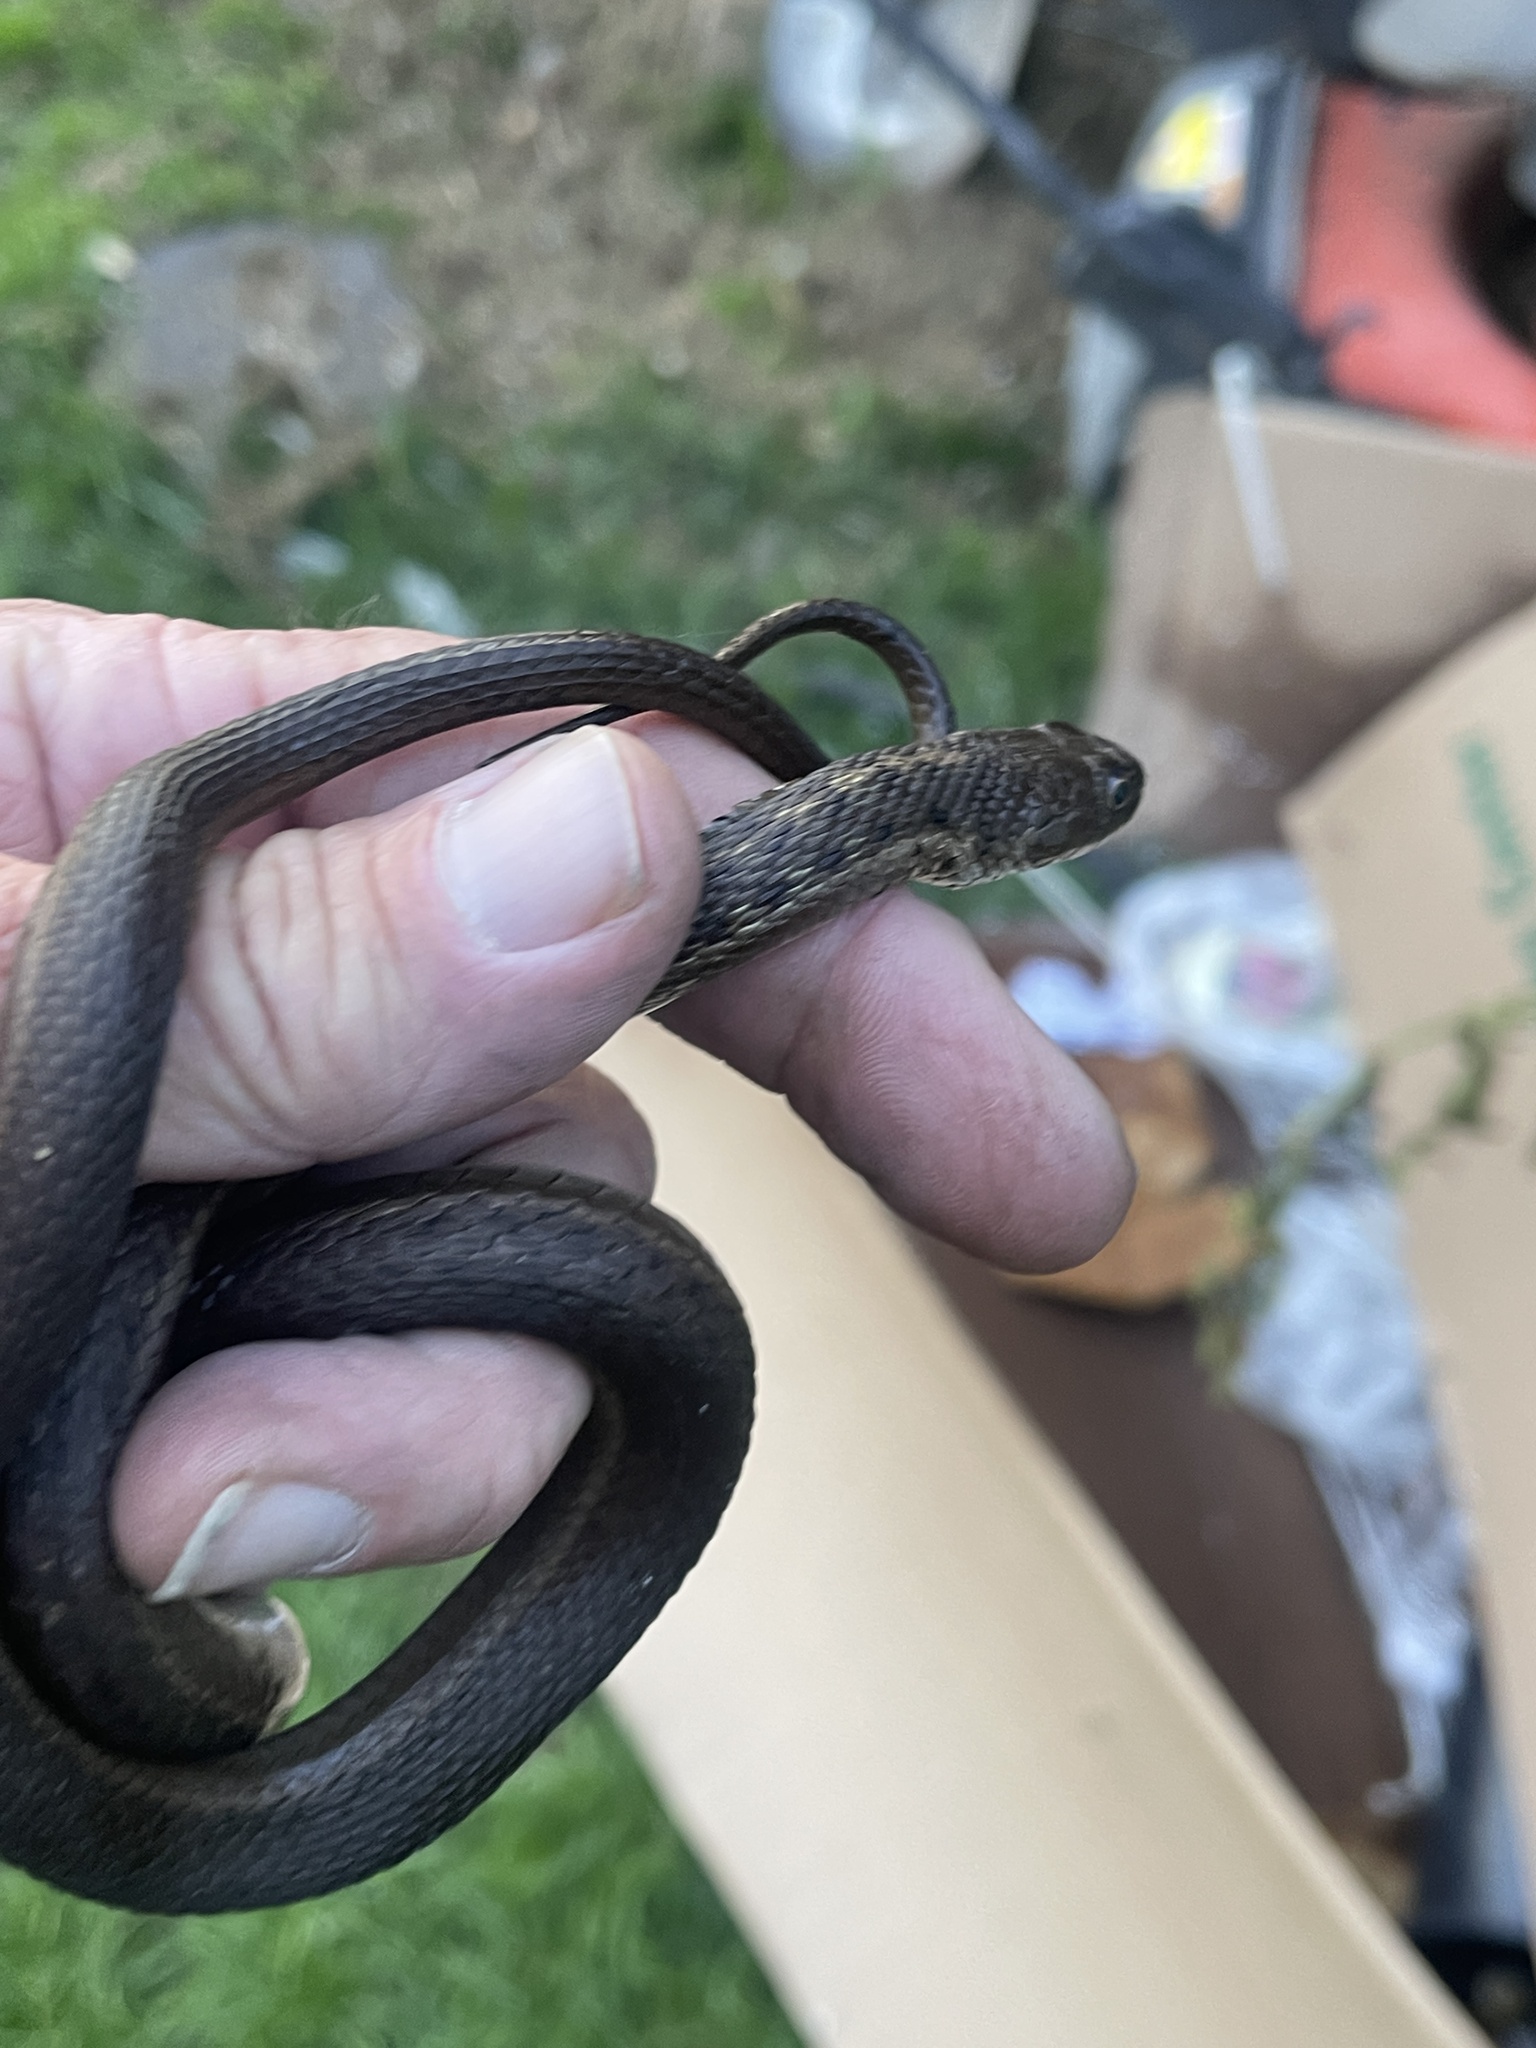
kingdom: Animalia
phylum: Chordata
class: Squamata
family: Colubridae
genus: Thamnophis
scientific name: Thamnophis elegans
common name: Western terrestrial garter snake
